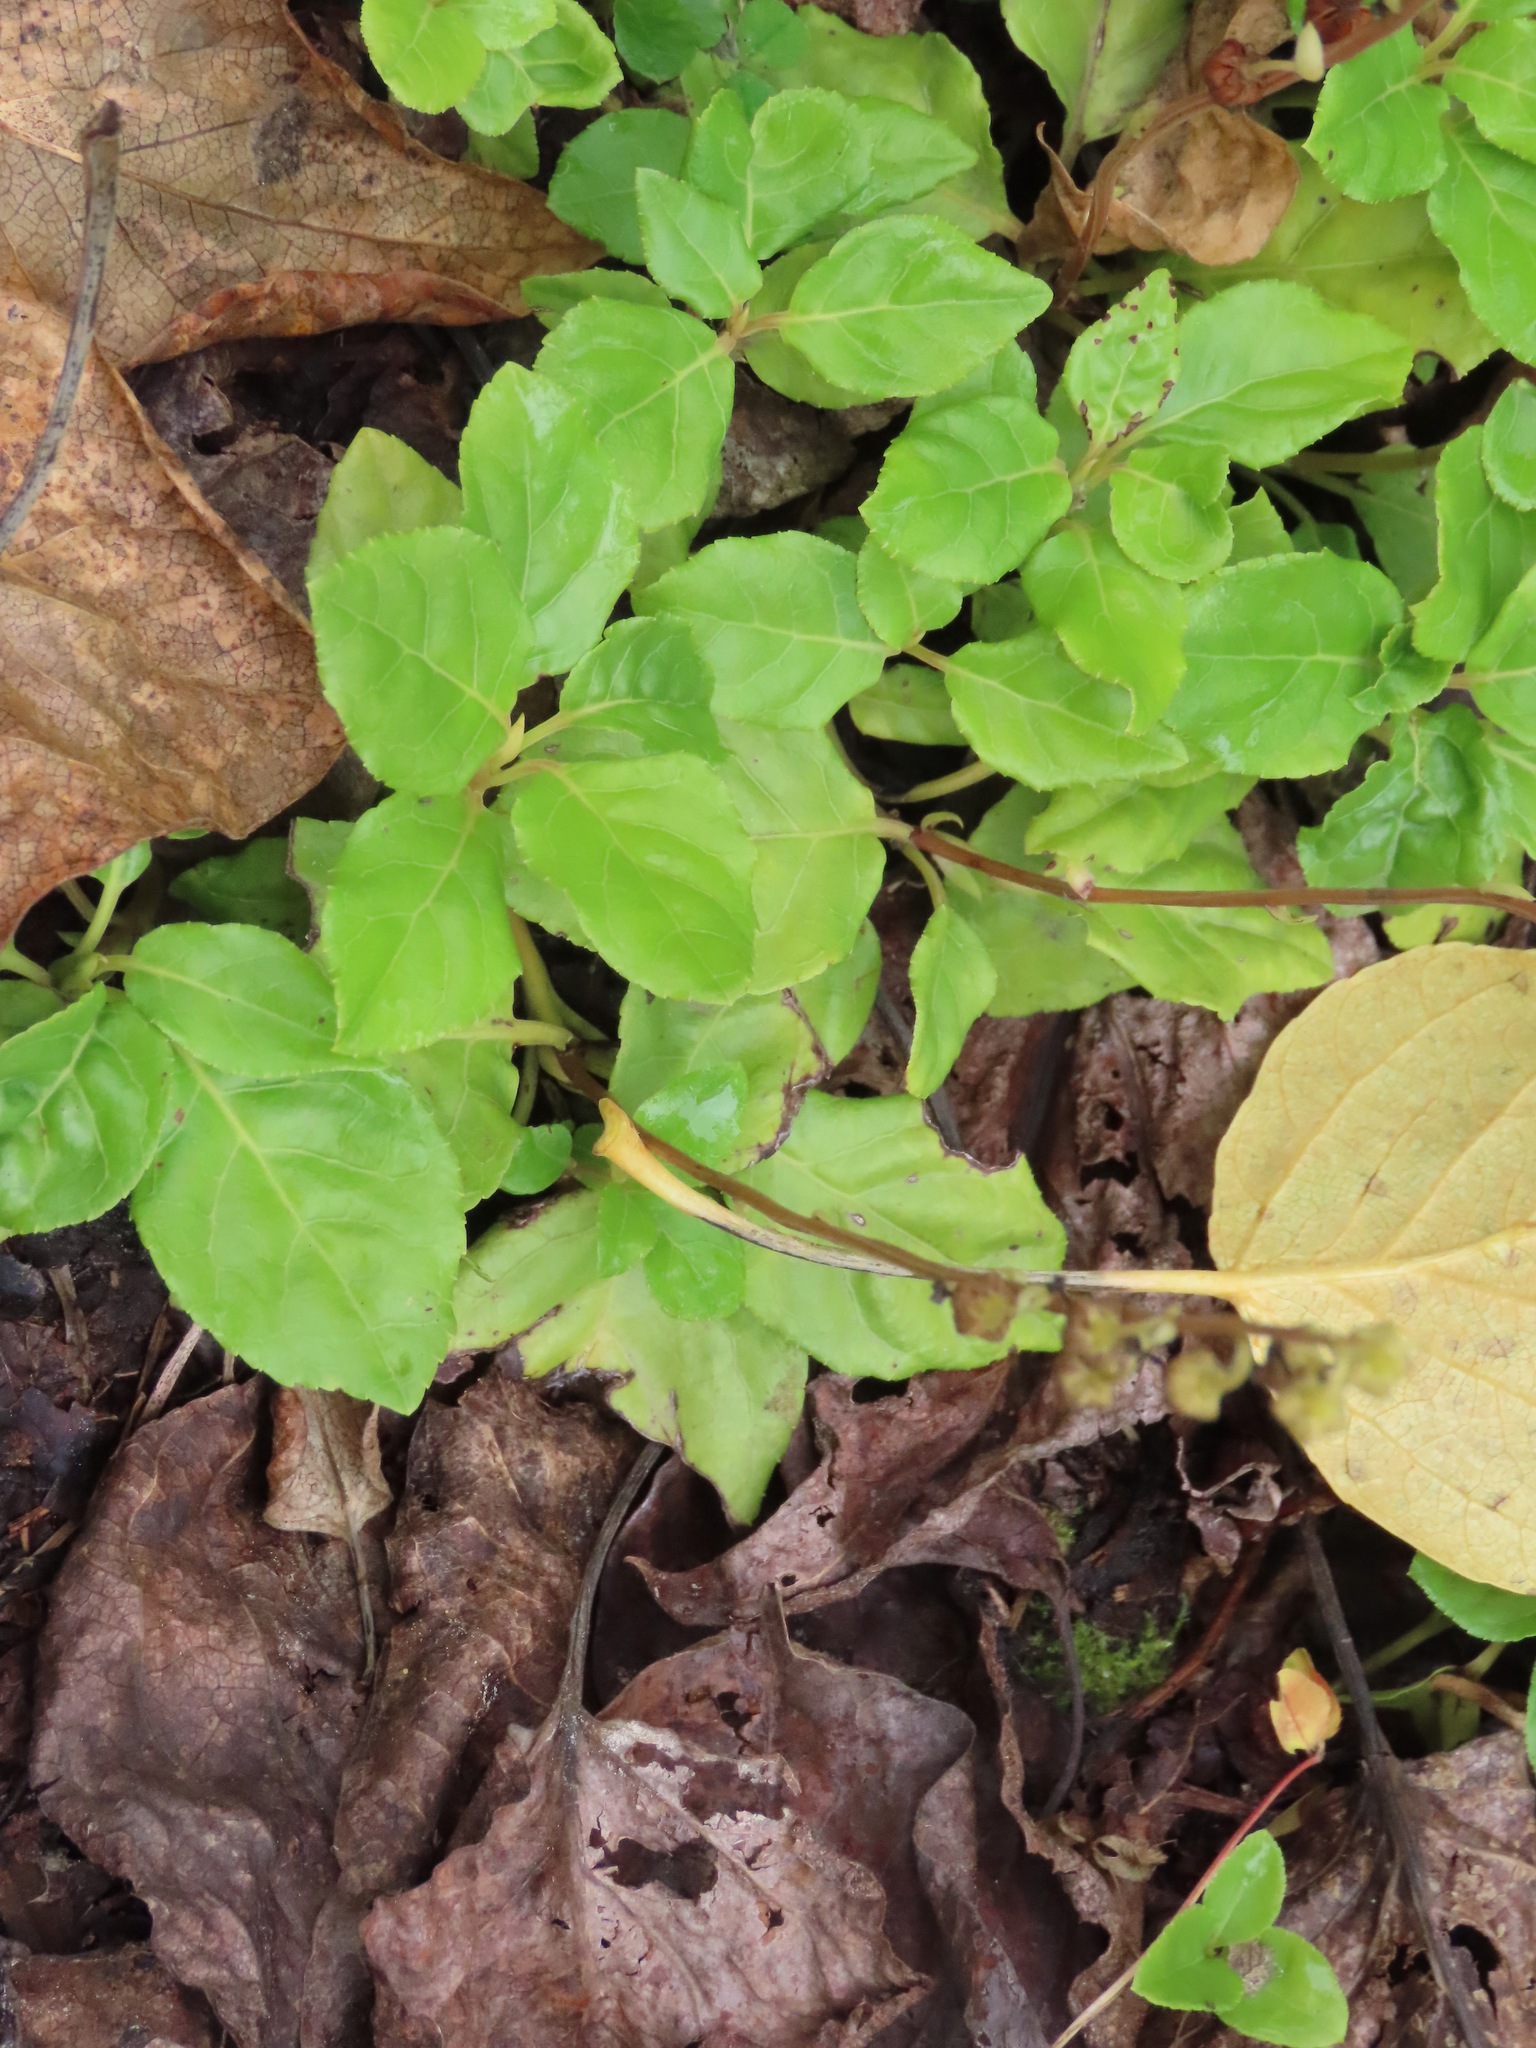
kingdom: Plantae
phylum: Tracheophyta
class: Magnoliopsida
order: Ericales
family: Ericaceae
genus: Orthilia
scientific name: Orthilia secunda
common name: One-sided orthilia
